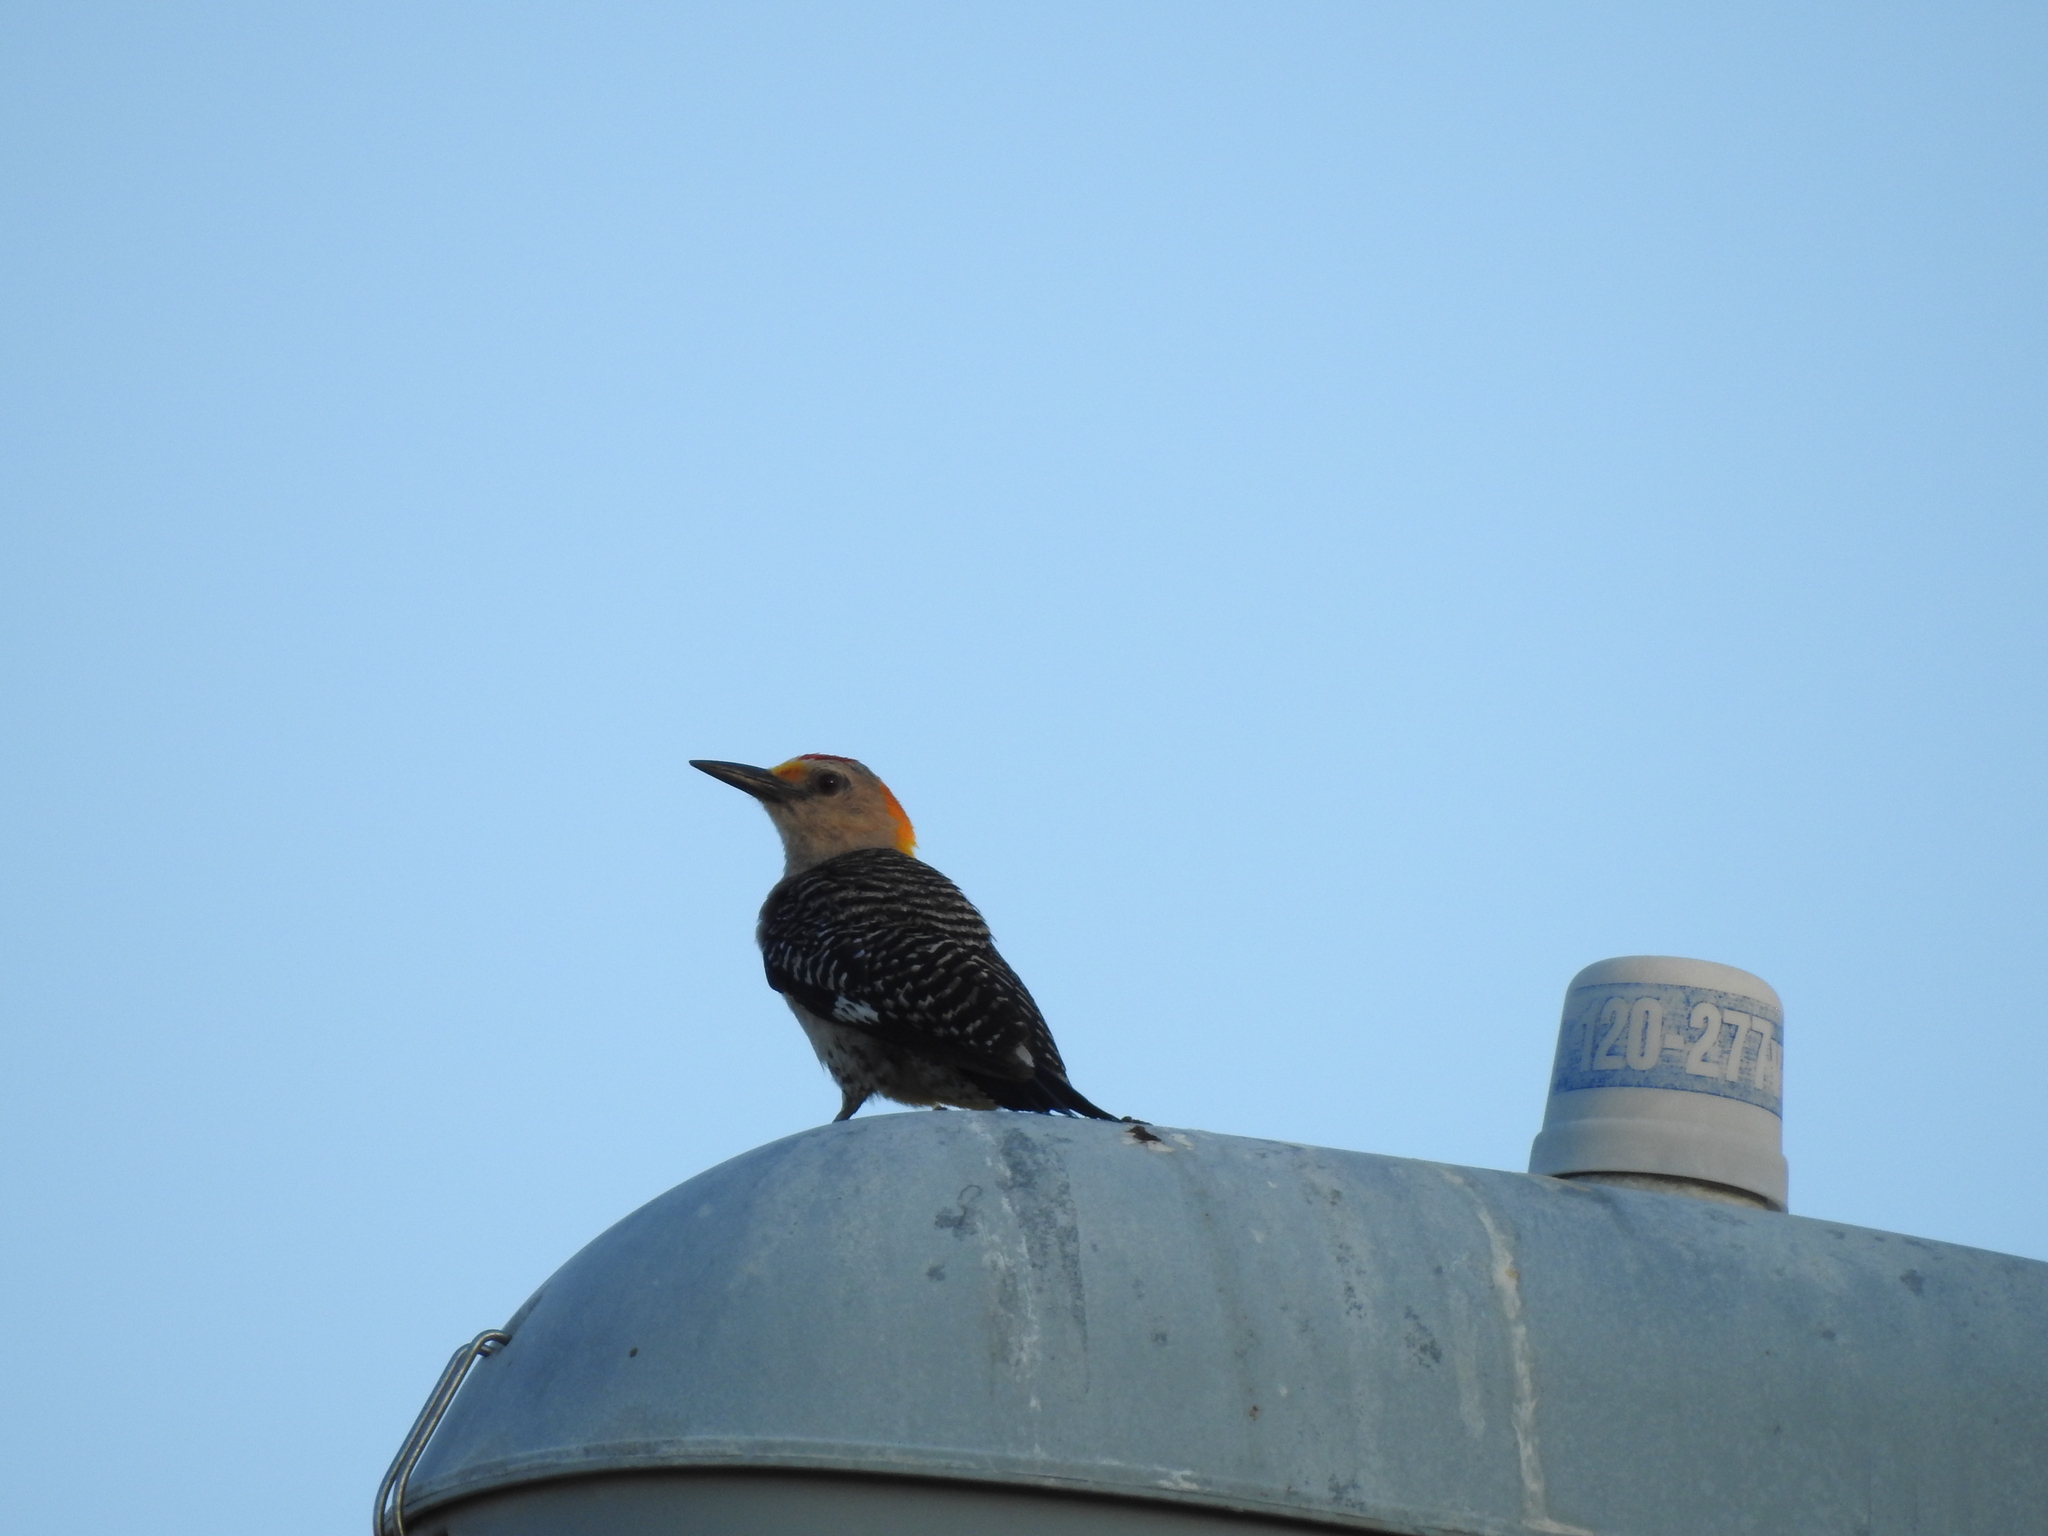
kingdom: Animalia
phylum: Chordata
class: Aves
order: Piciformes
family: Picidae
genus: Melanerpes
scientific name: Melanerpes aurifrons
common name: Golden-fronted woodpecker
